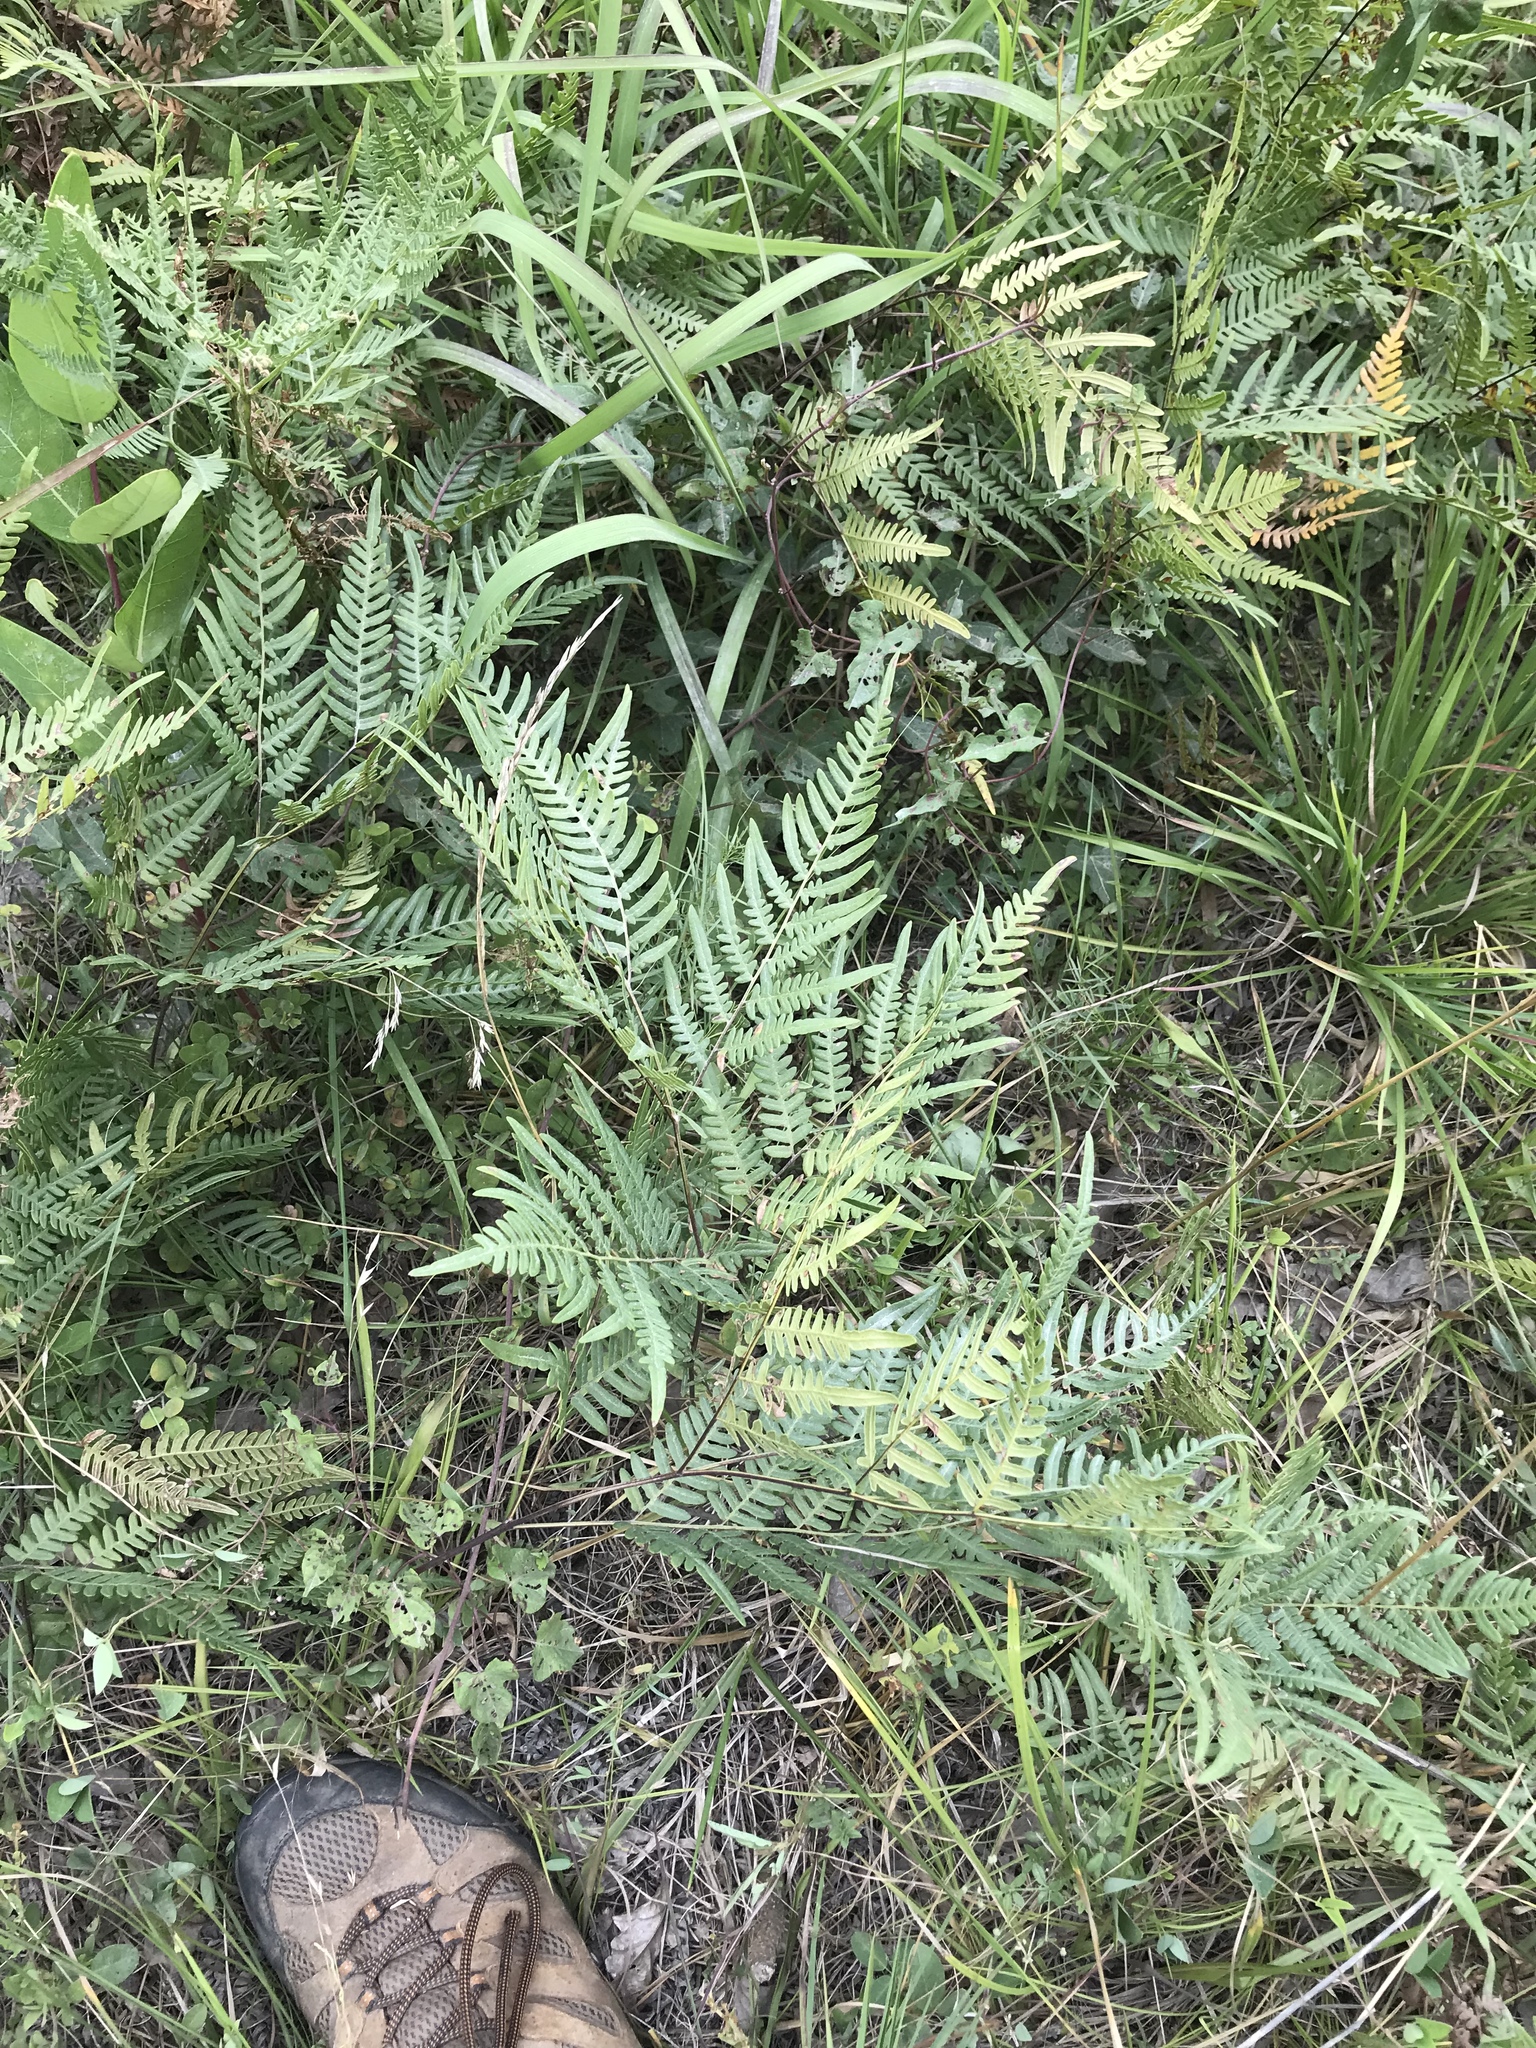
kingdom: Plantae
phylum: Tracheophyta
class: Polypodiopsida
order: Polypodiales
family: Dennstaedtiaceae
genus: Pteridium
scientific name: Pteridium aquilinum
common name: Bracken
